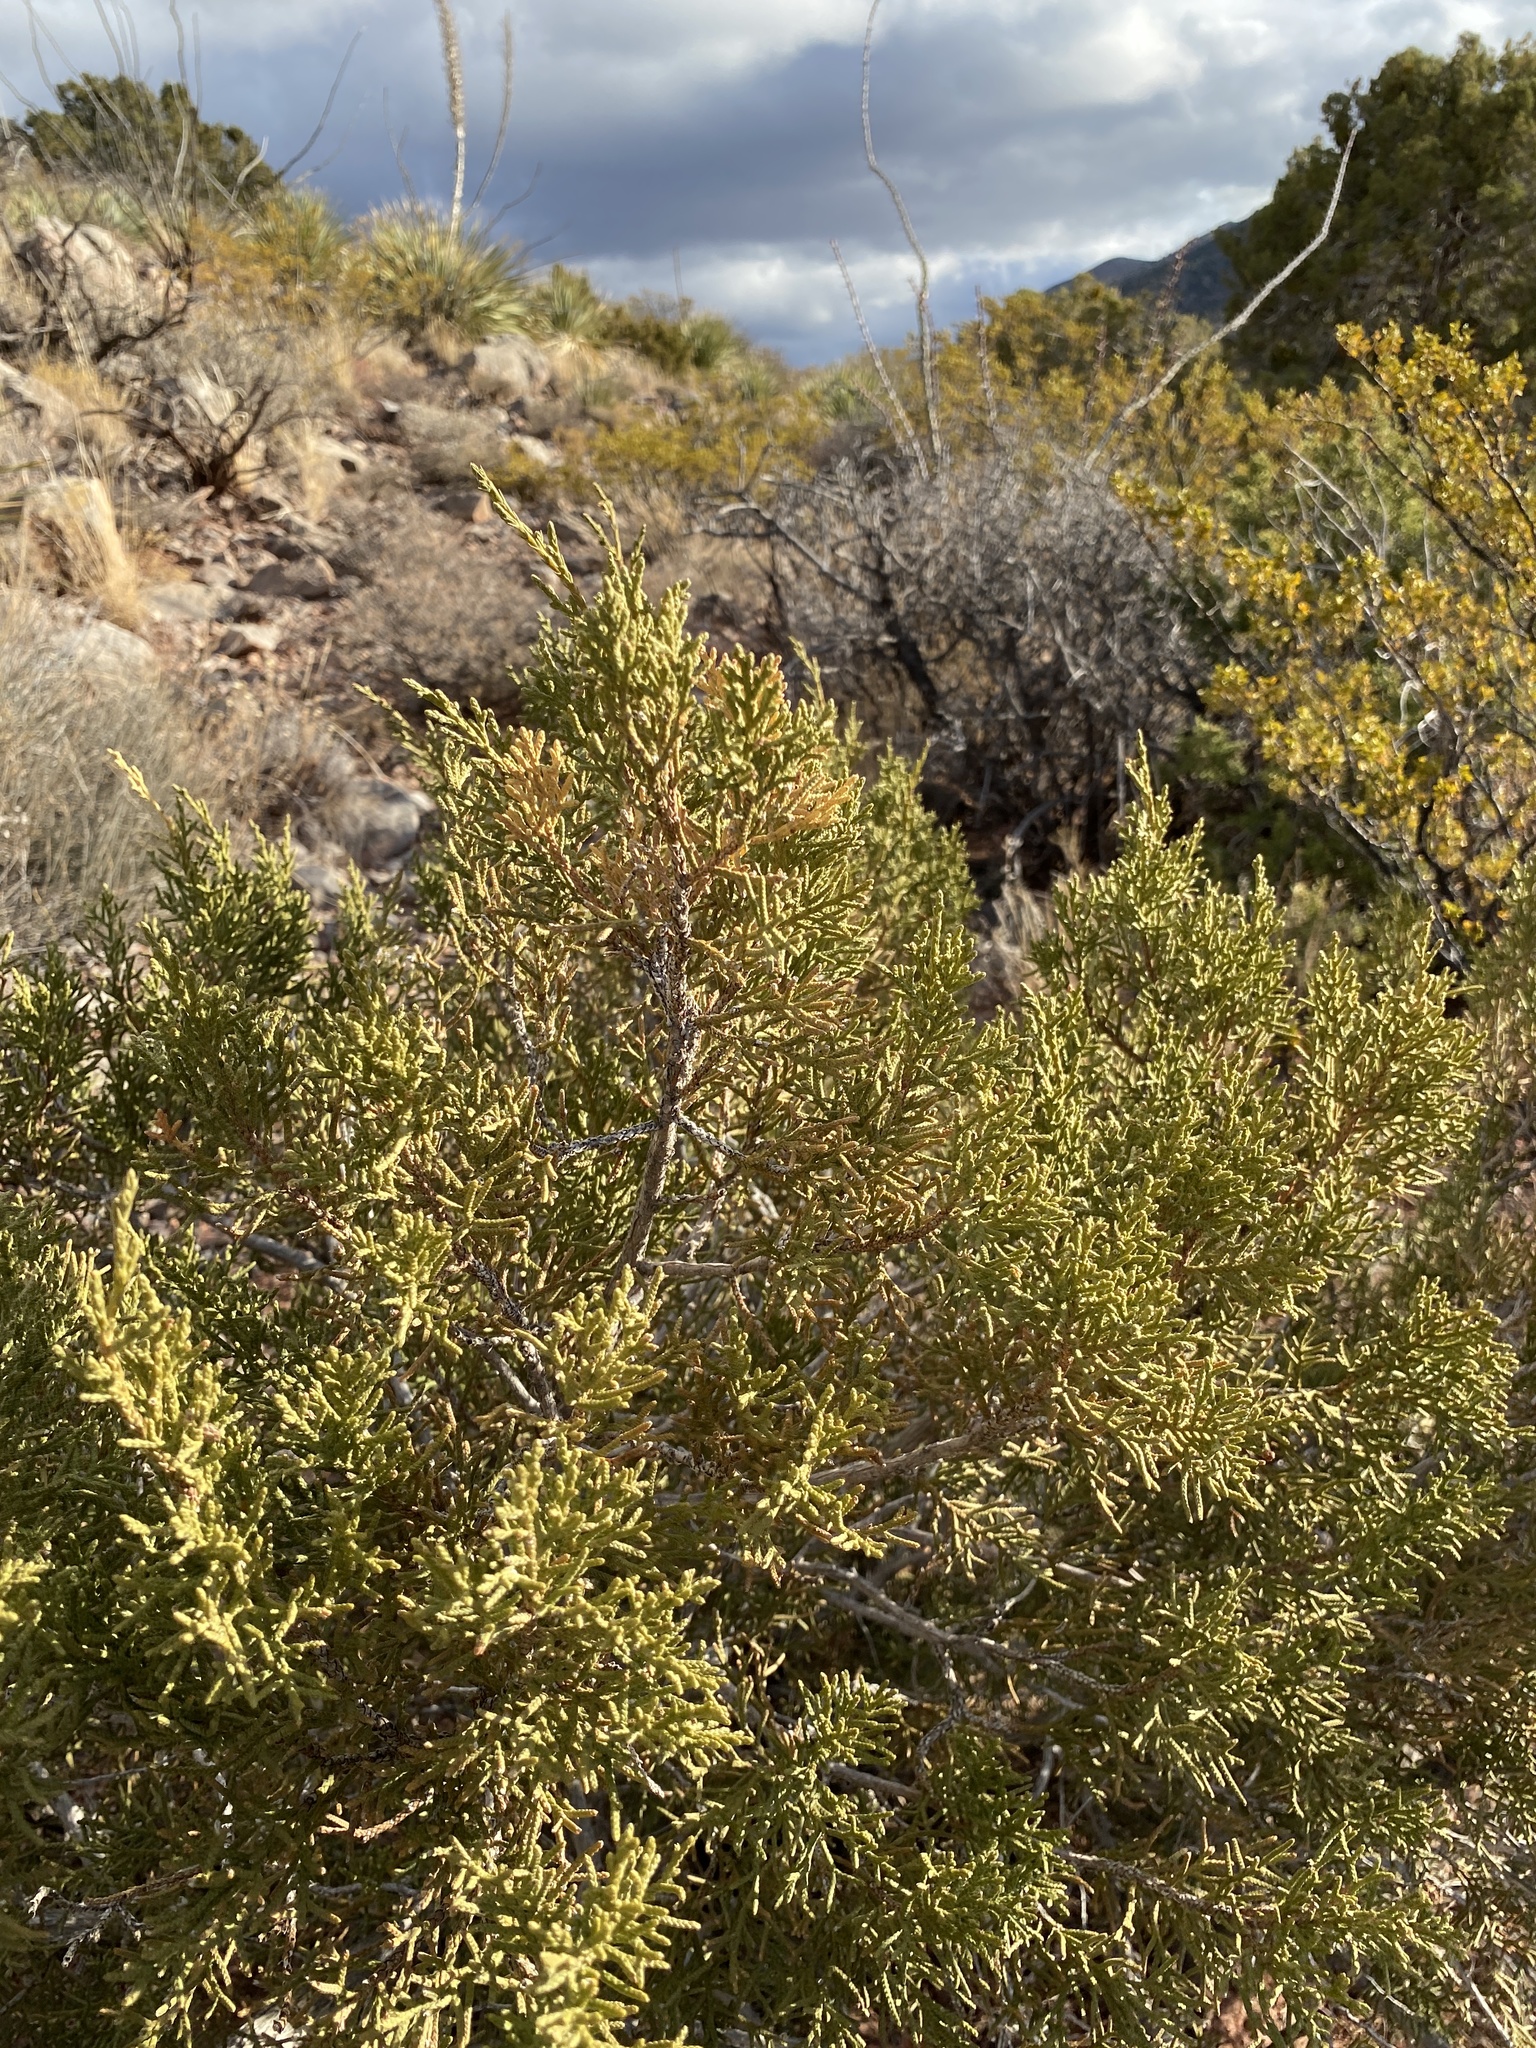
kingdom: Plantae
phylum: Tracheophyta
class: Pinopsida
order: Pinales
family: Cupressaceae
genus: Juniperus
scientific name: Juniperus monosperma
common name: One-seed juniper
